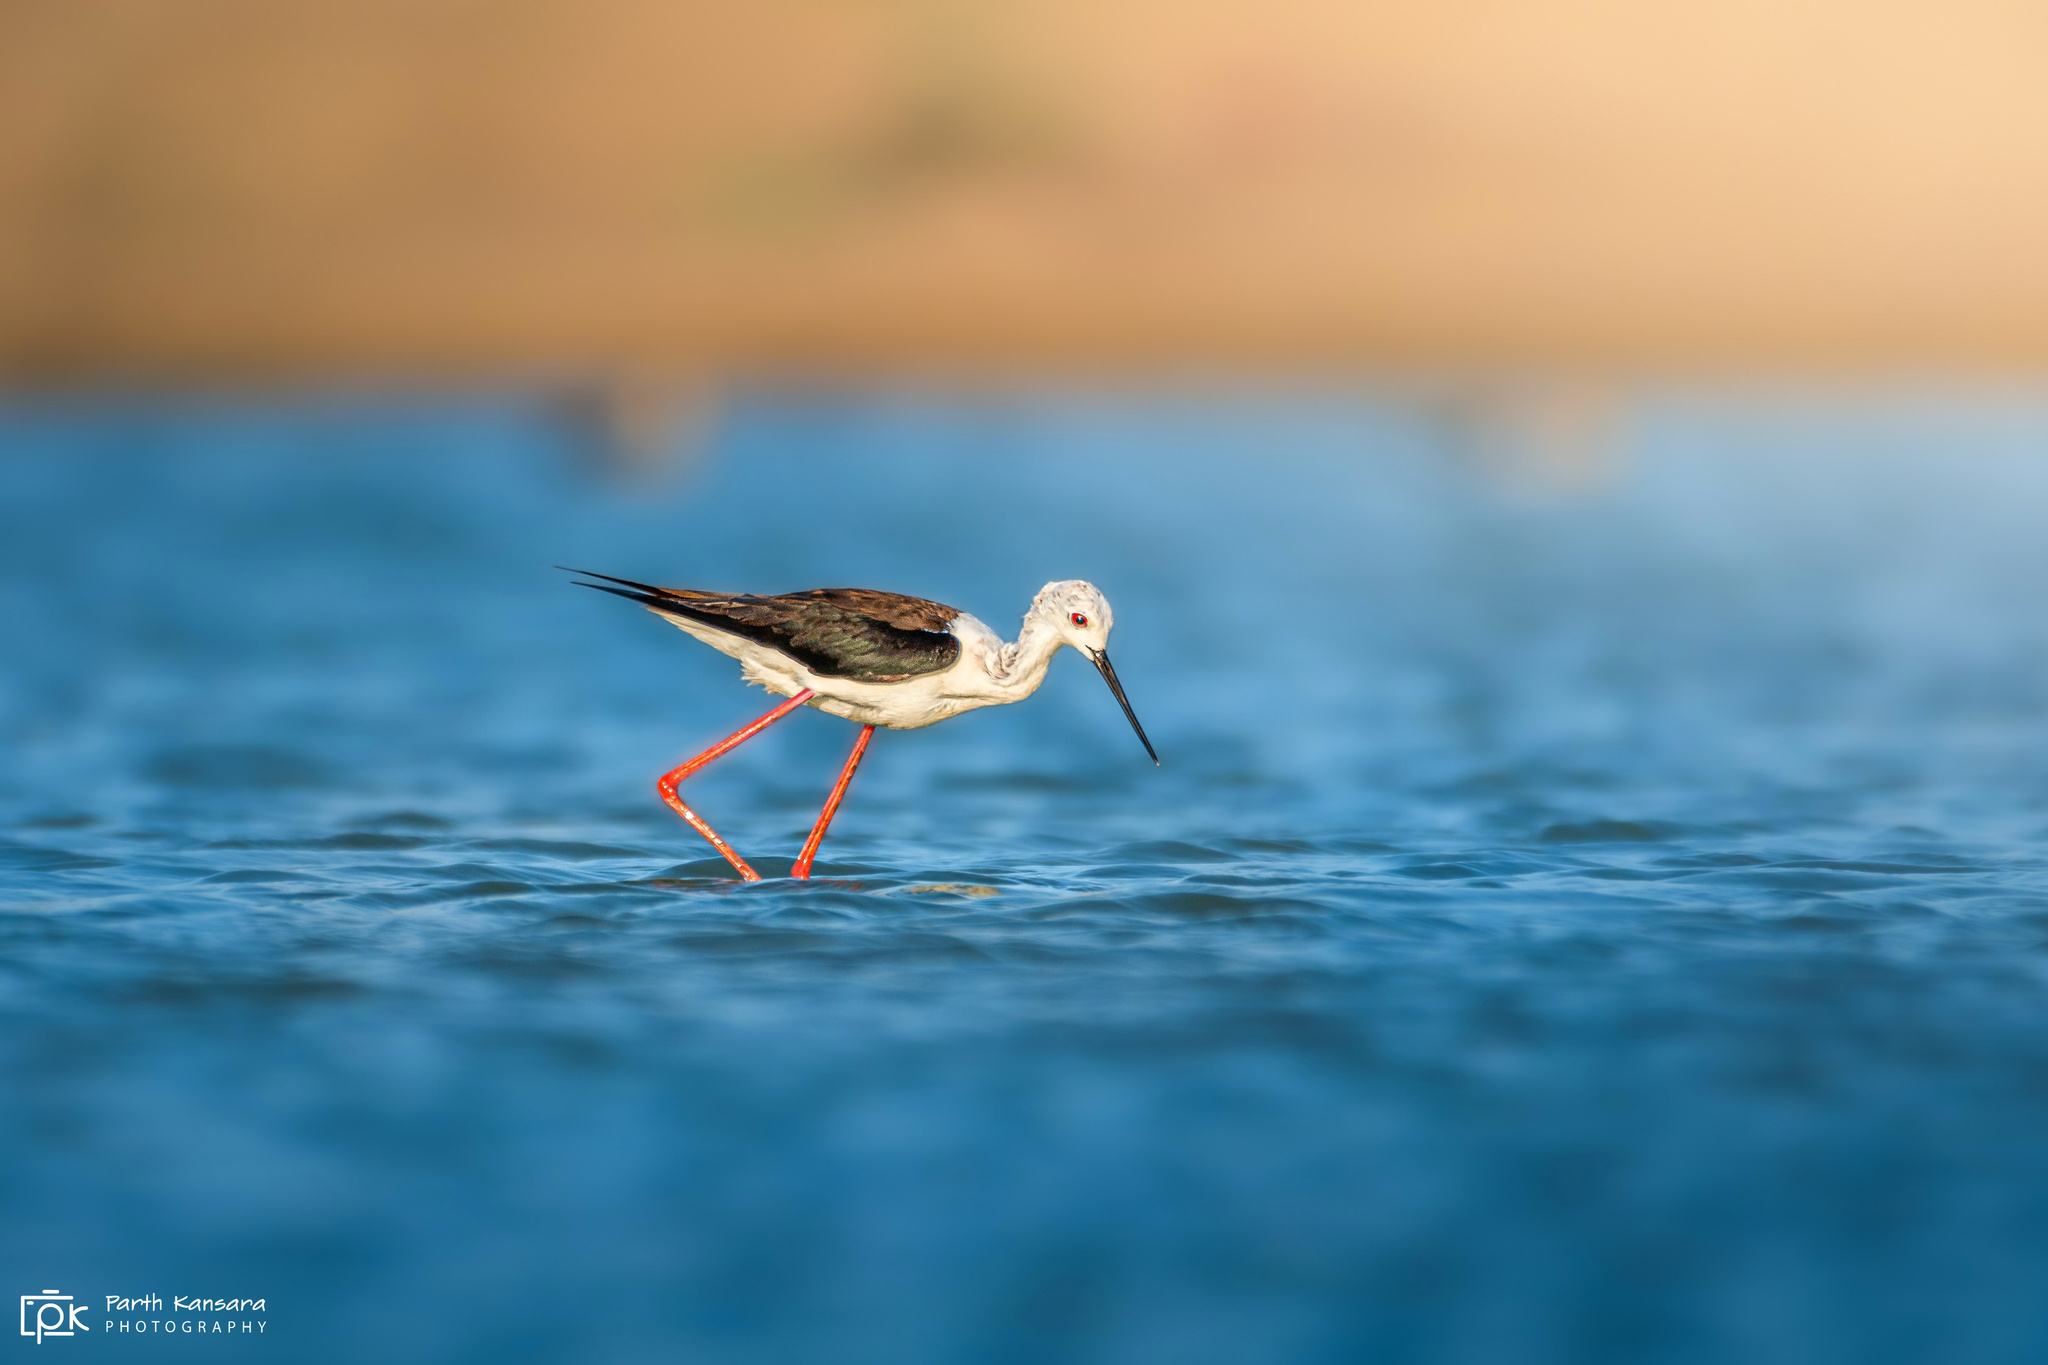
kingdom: Animalia
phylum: Chordata
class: Aves
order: Charadriiformes
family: Recurvirostridae
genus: Himantopus
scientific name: Himantopus himantopus
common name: Black-winged stilt
